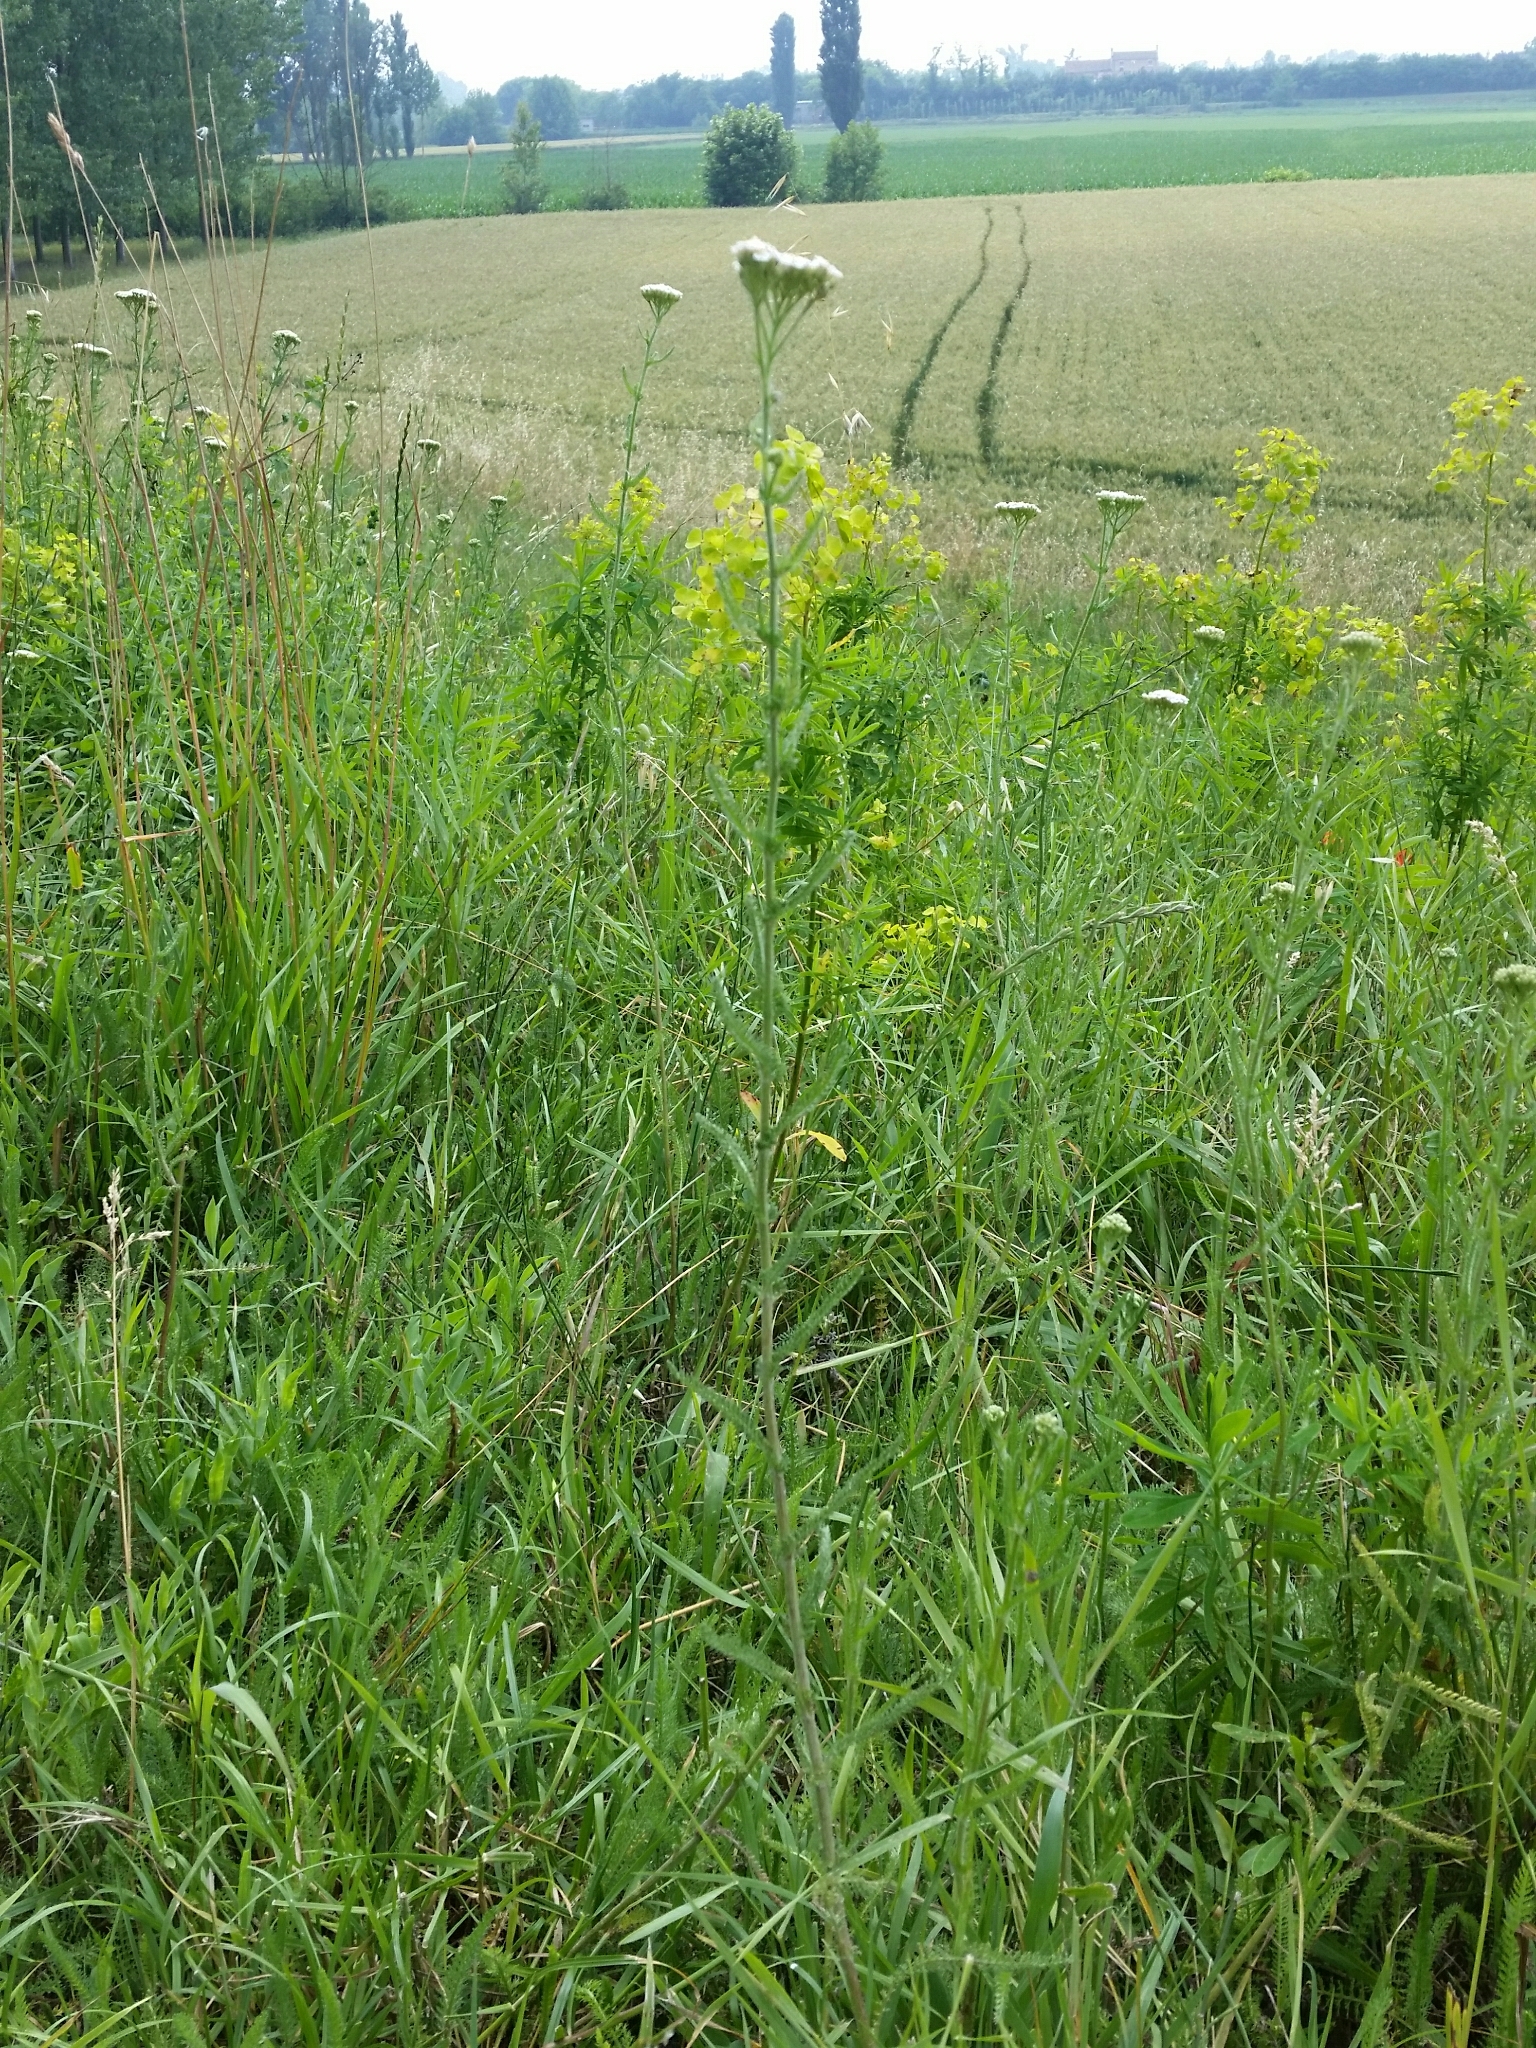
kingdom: Plantae
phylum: Tracheophyta
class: Magnoliopsida
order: Asterales
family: Asteraceae
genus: Achillea
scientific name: Achillea millefolium
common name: Yarrow
